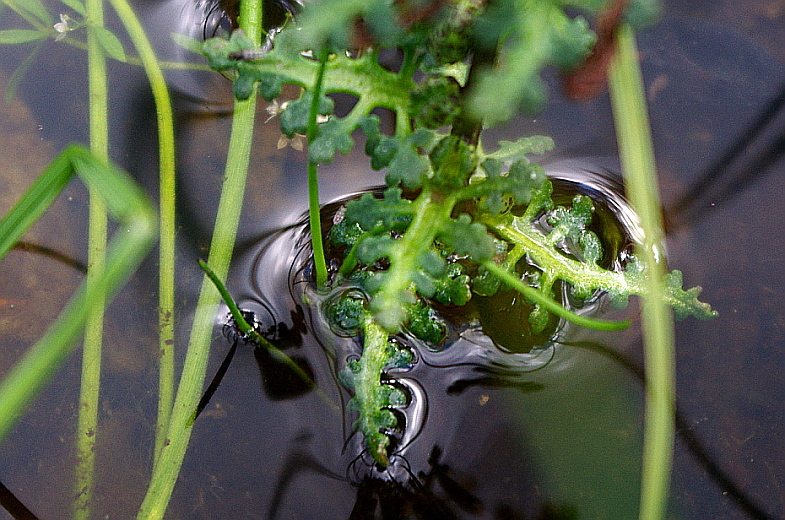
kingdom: Plantae
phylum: Tracheophyta
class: Magnoliopsida
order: Lamiales
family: Orobanchaceae
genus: Pedicularis
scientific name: Pedicularis palustris
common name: Marsh lousewort
